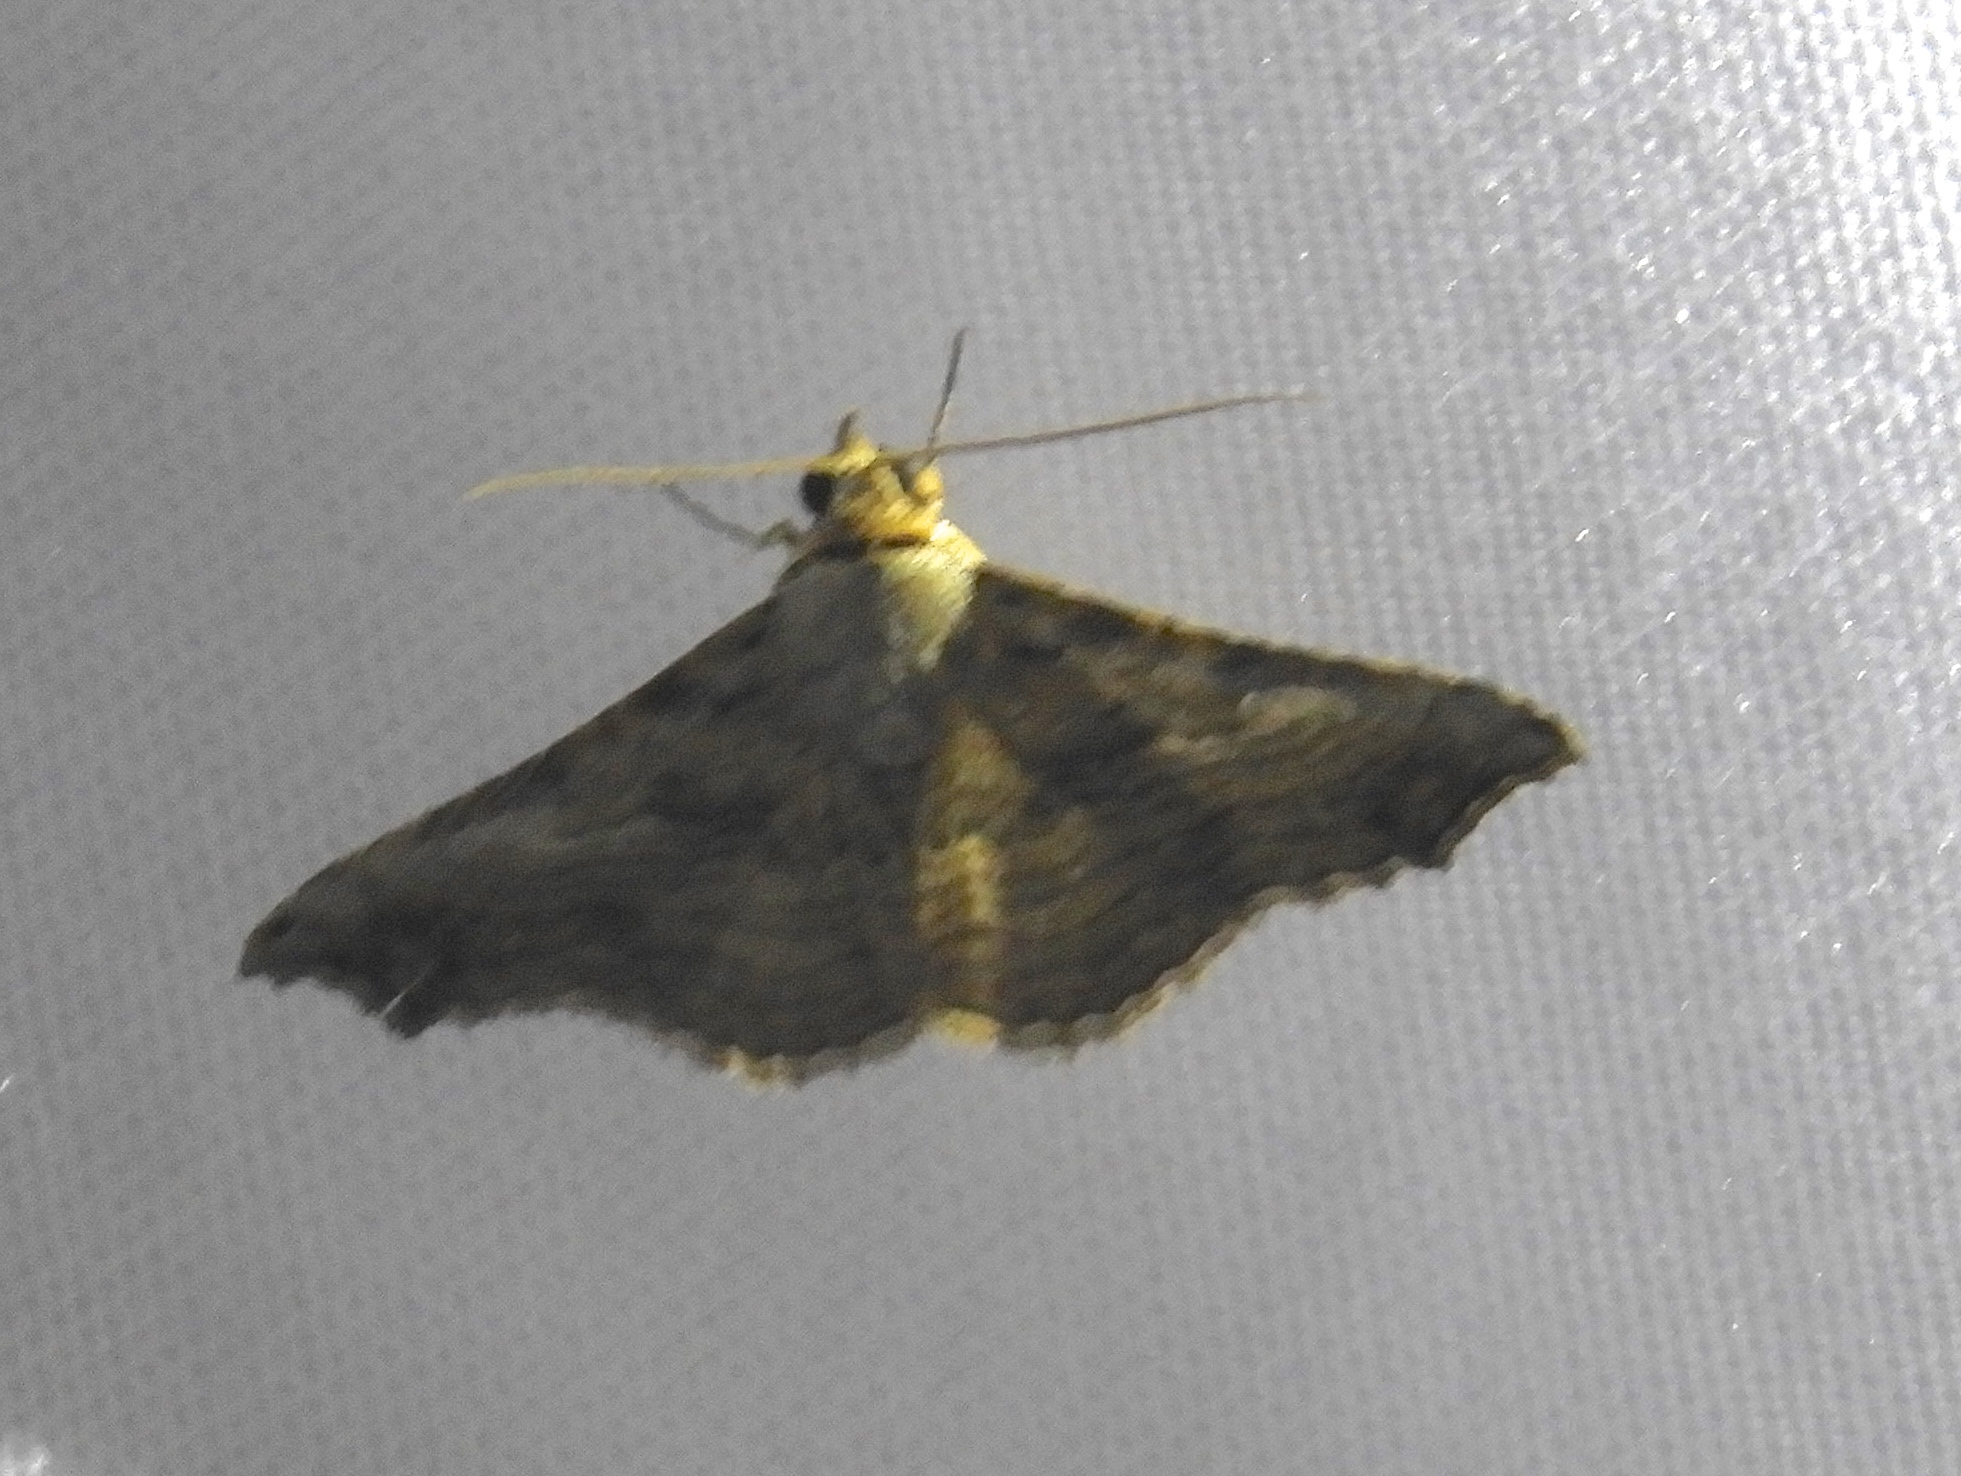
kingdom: Animalia
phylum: Arthropoda
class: Insecta
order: Lepidoptera
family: Erebidae
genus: Tyrissa
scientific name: Tyrissa multilinea
